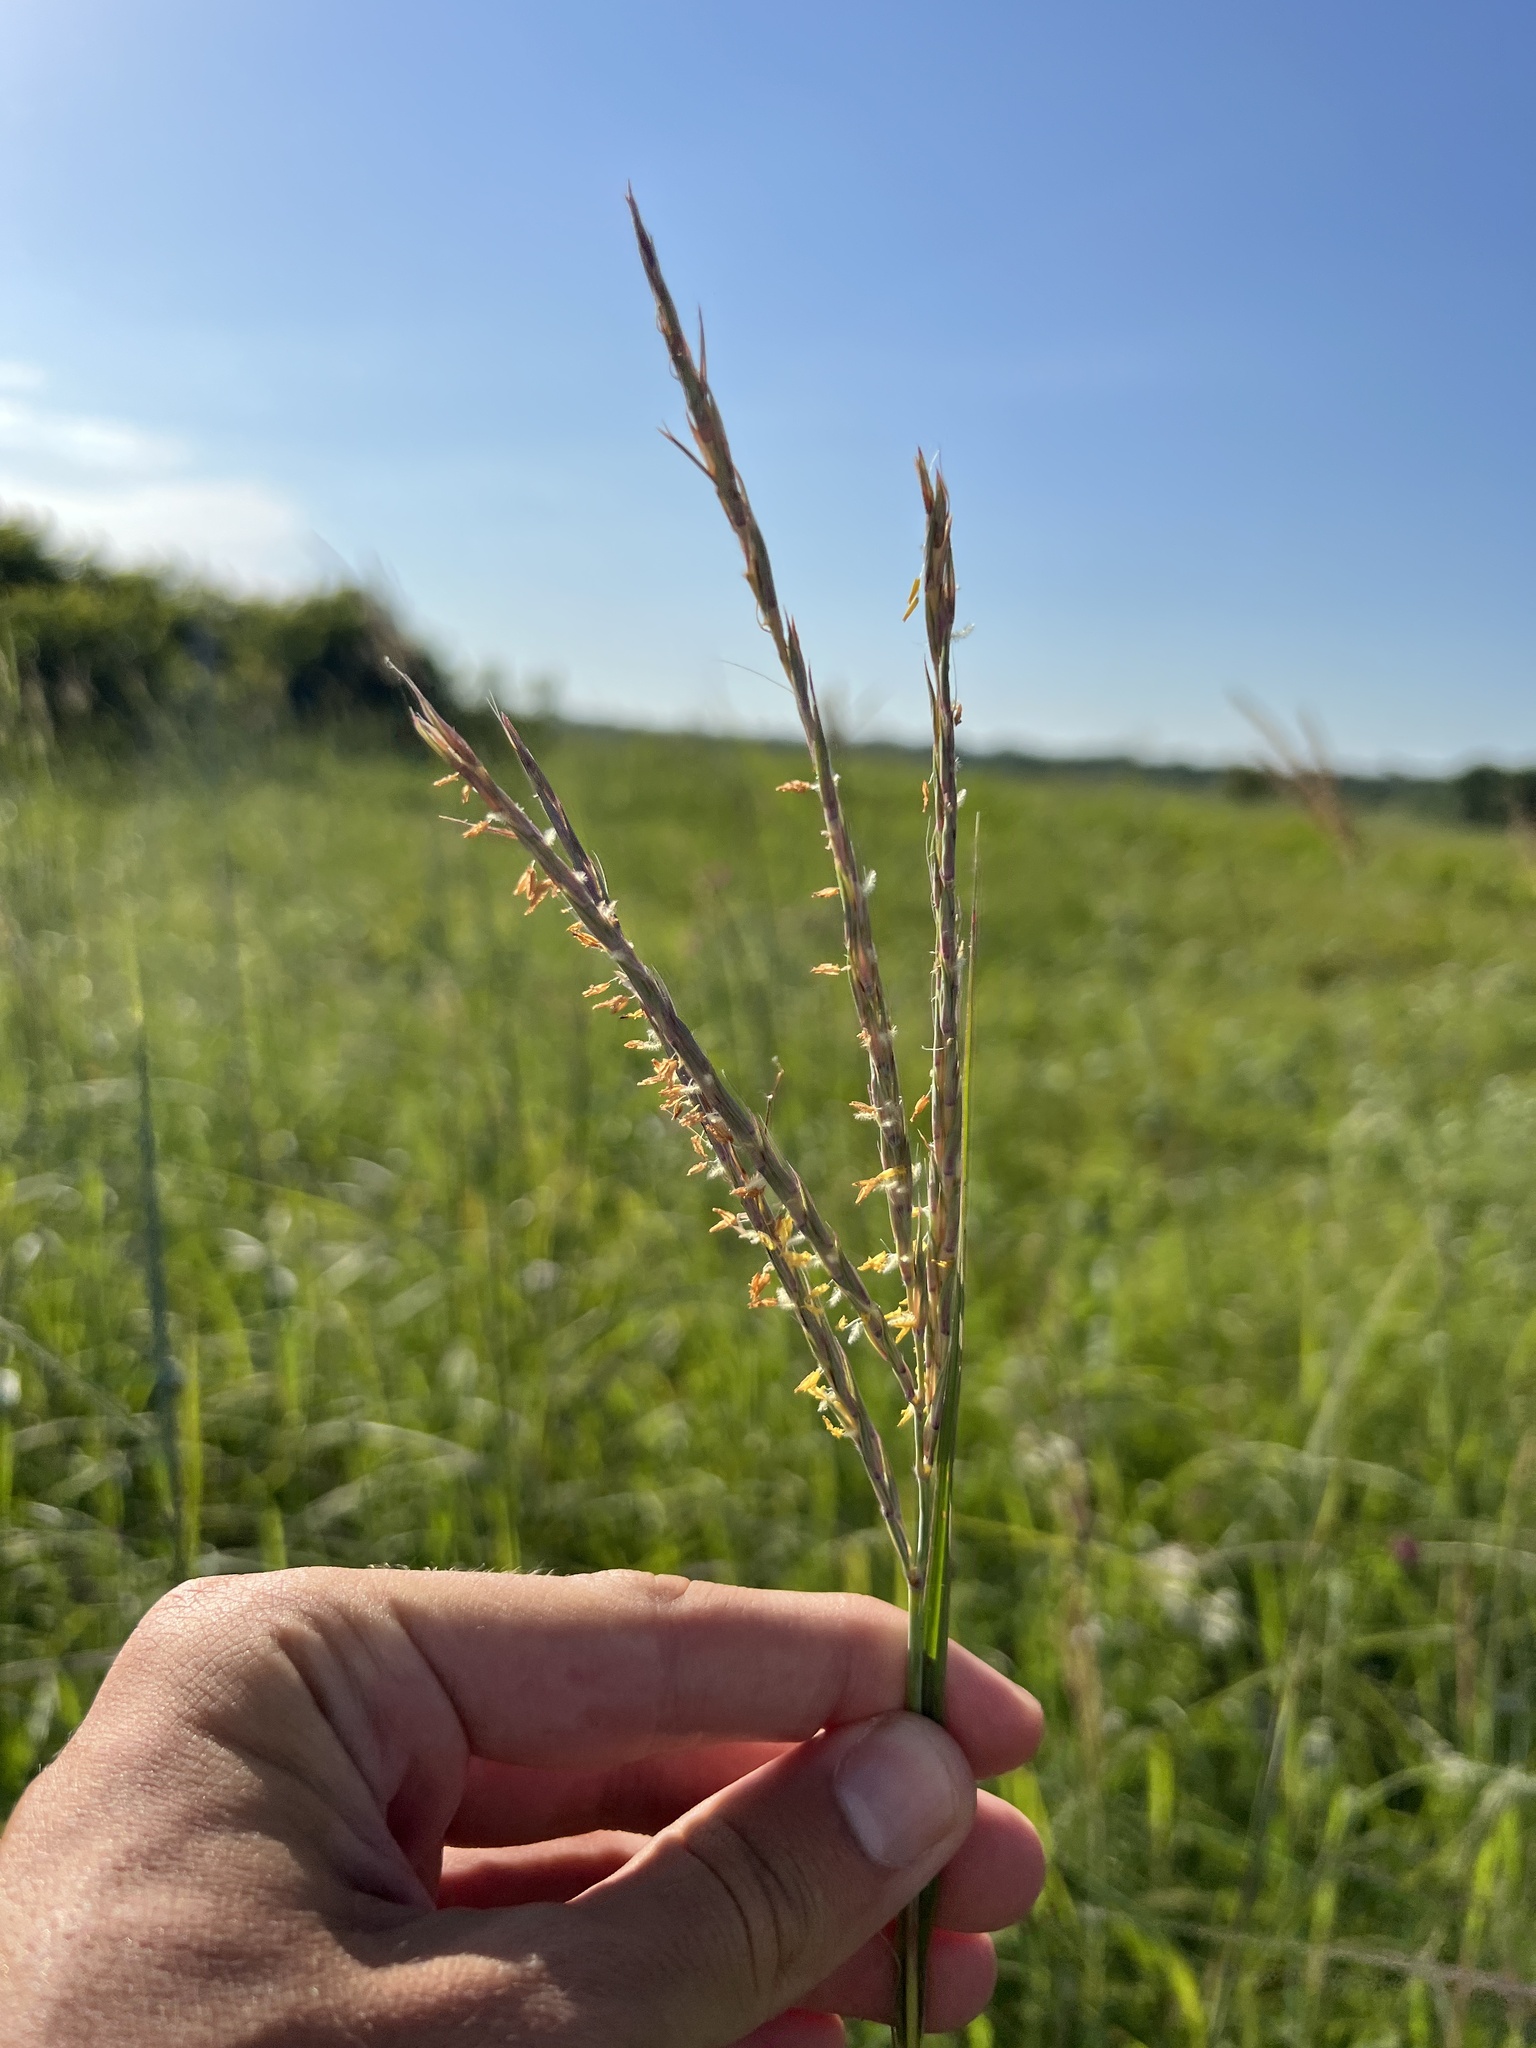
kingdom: Plantae
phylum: Tracheophyta
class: Liliopsida
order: Poales
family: Poaceae
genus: Andropogon
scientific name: Andropogon gerardi
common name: Big bluestem
